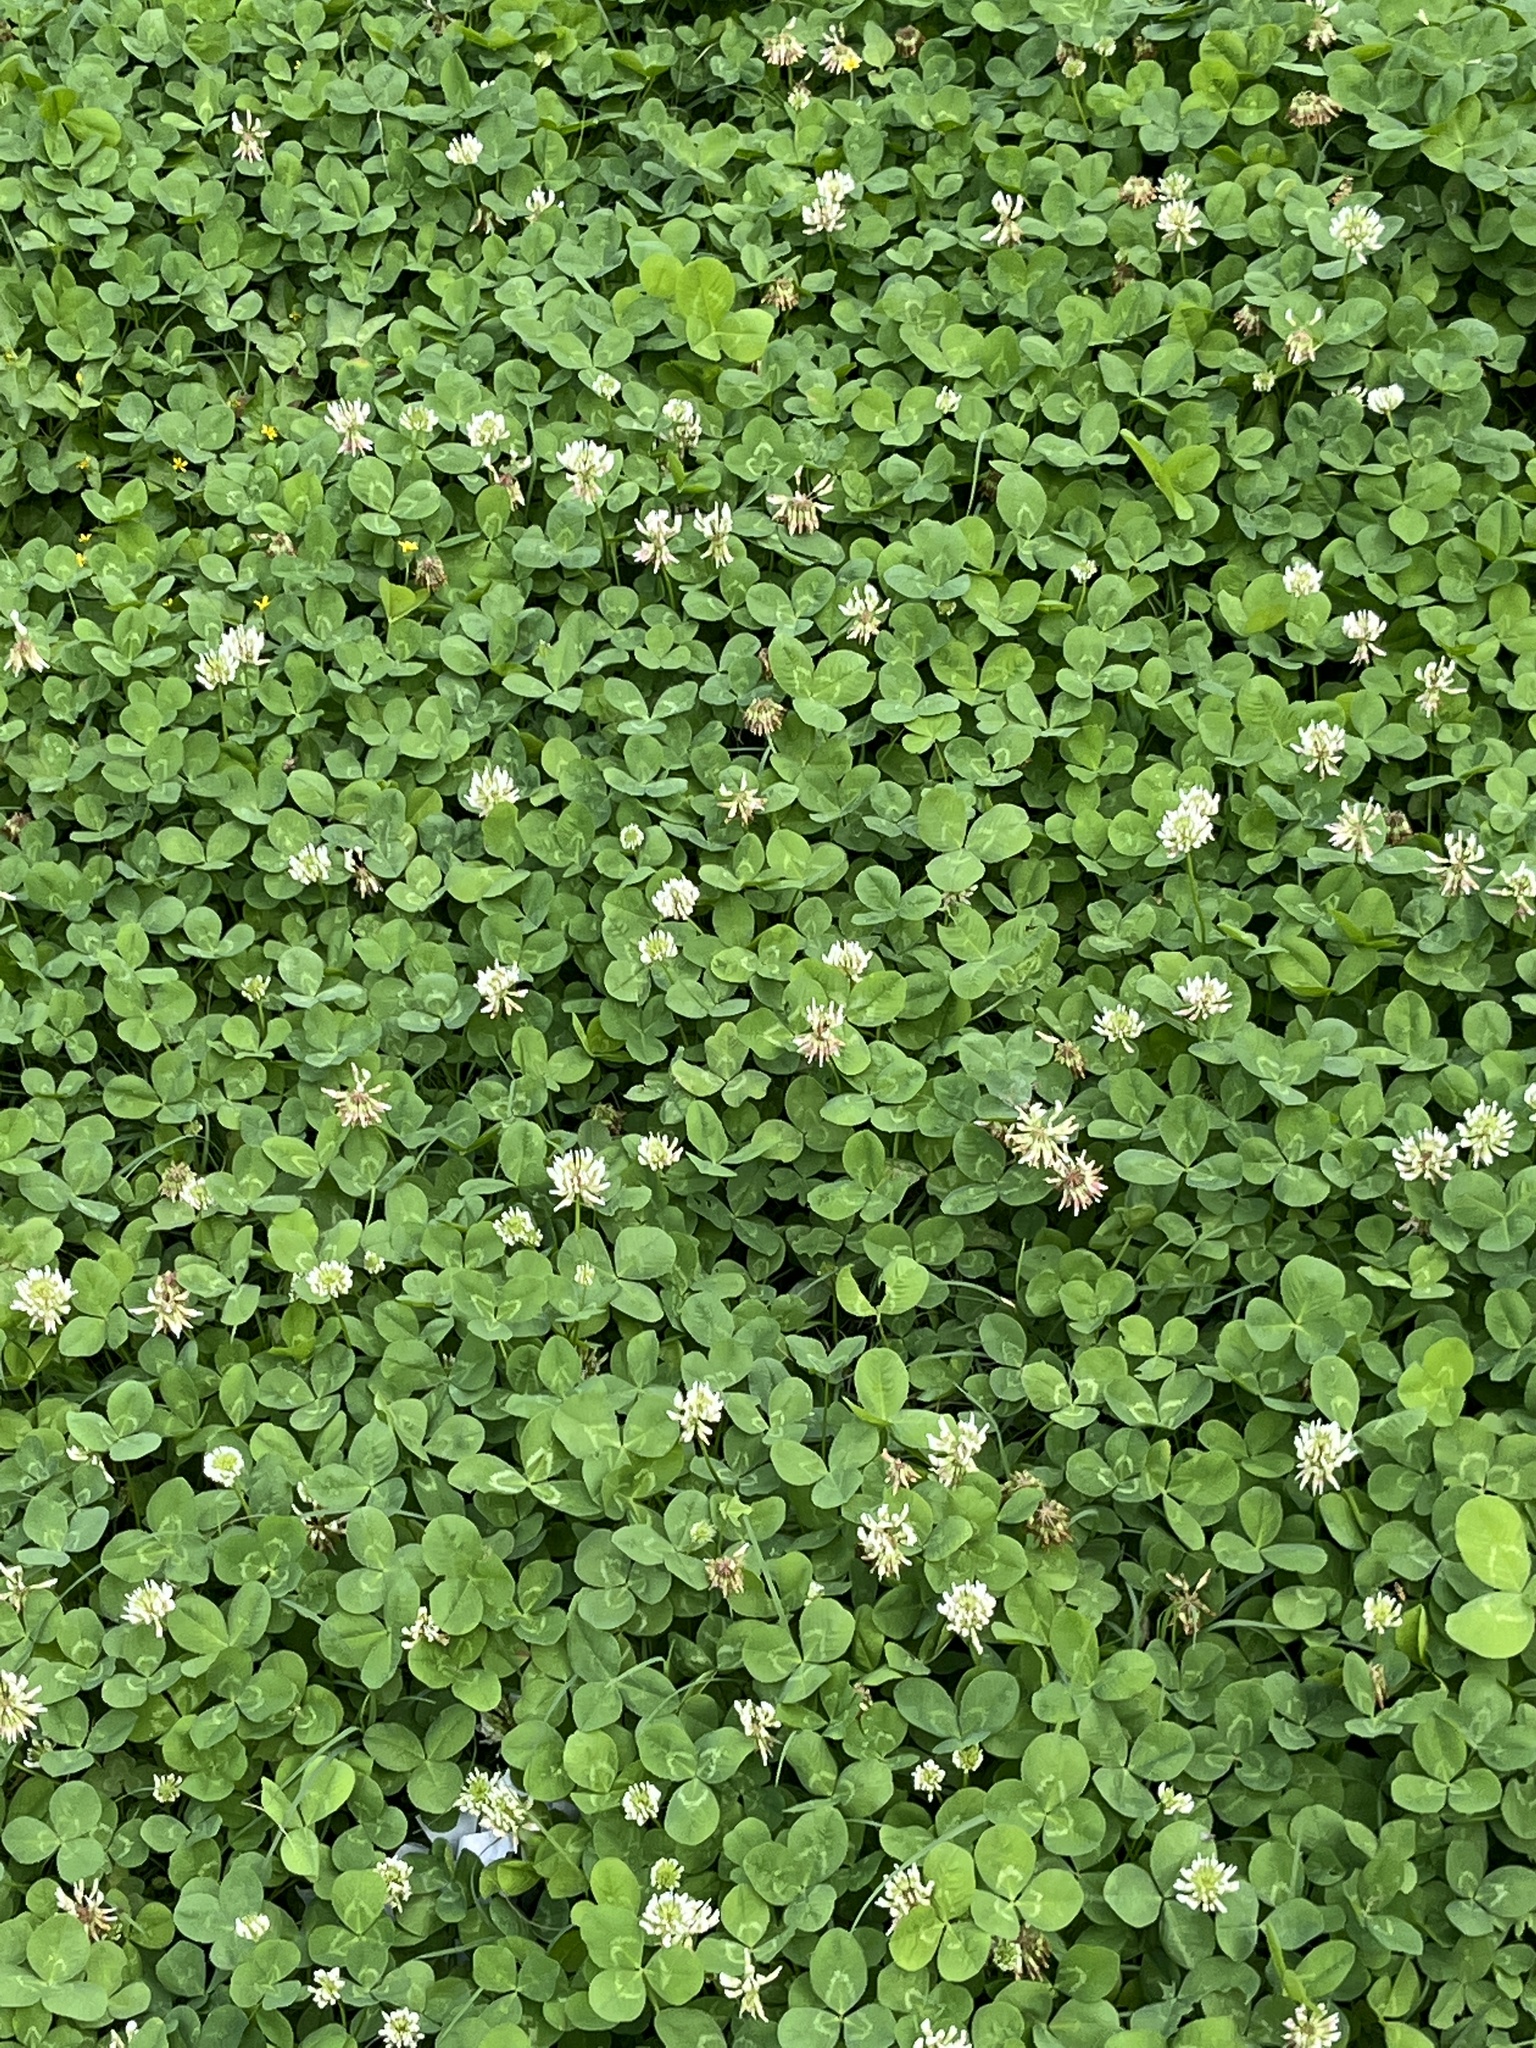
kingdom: Plantae
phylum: Tracheophyta
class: Magnoliopsida
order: Fabales
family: Fabaceae
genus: Trifolium
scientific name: Trifolium repens
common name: White clover
